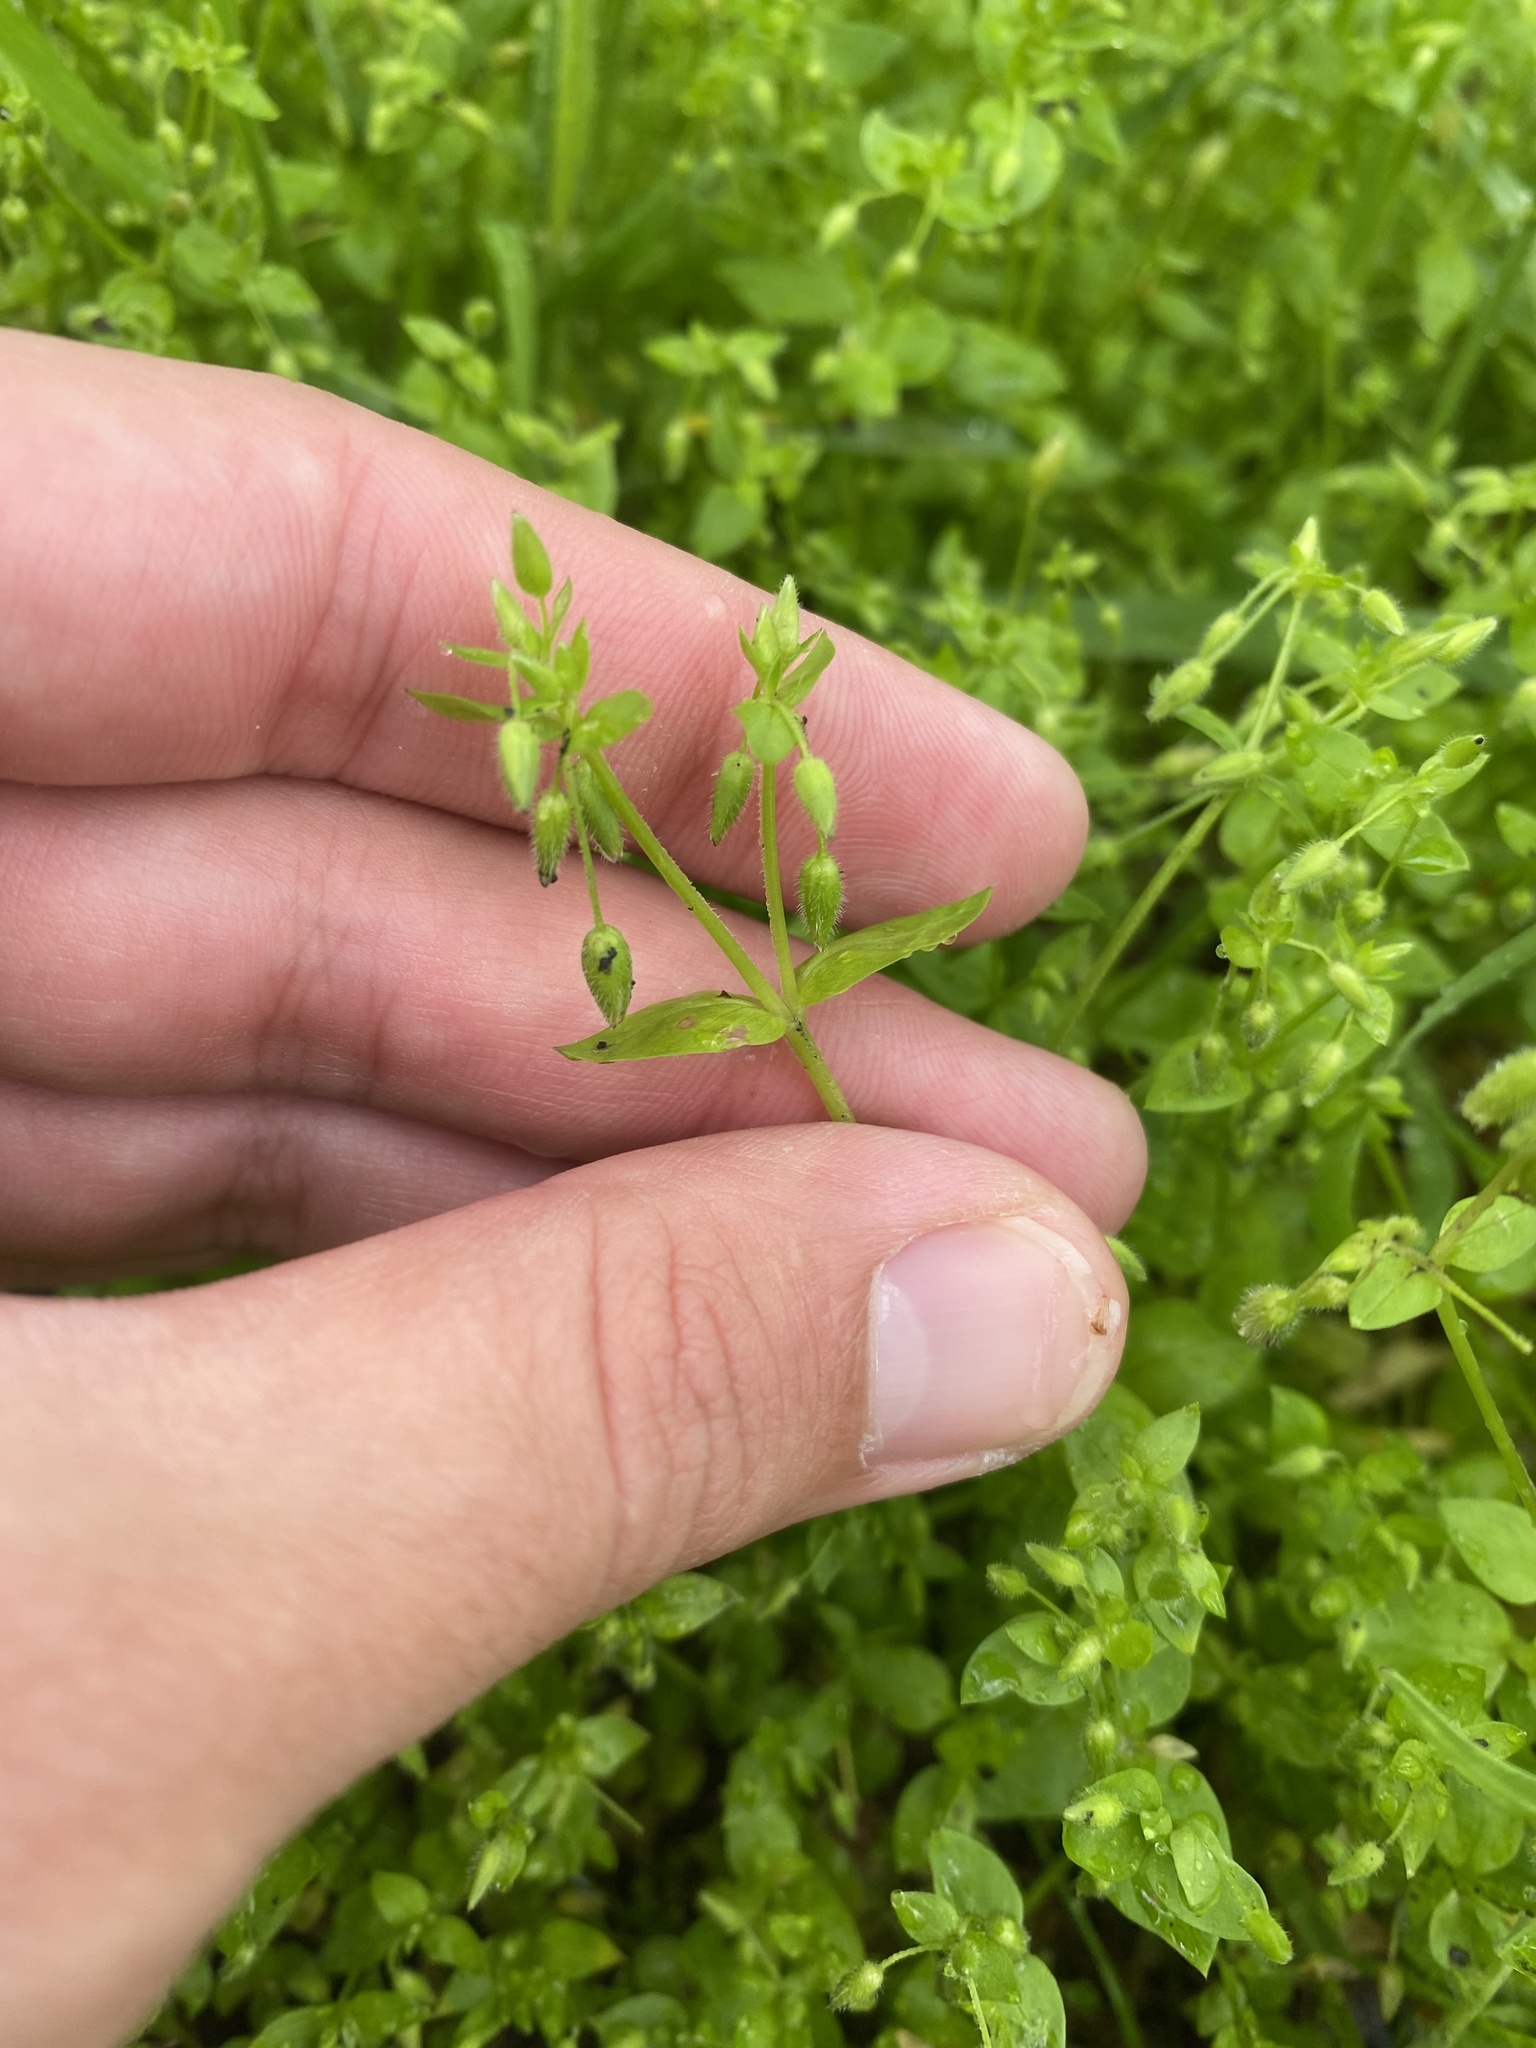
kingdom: Plantae
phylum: Tracheophyta
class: Magnoliopsida
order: Caryophyllales
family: Caryophyllaceae
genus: Stellaria
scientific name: Stellaria media
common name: Common chickweed
